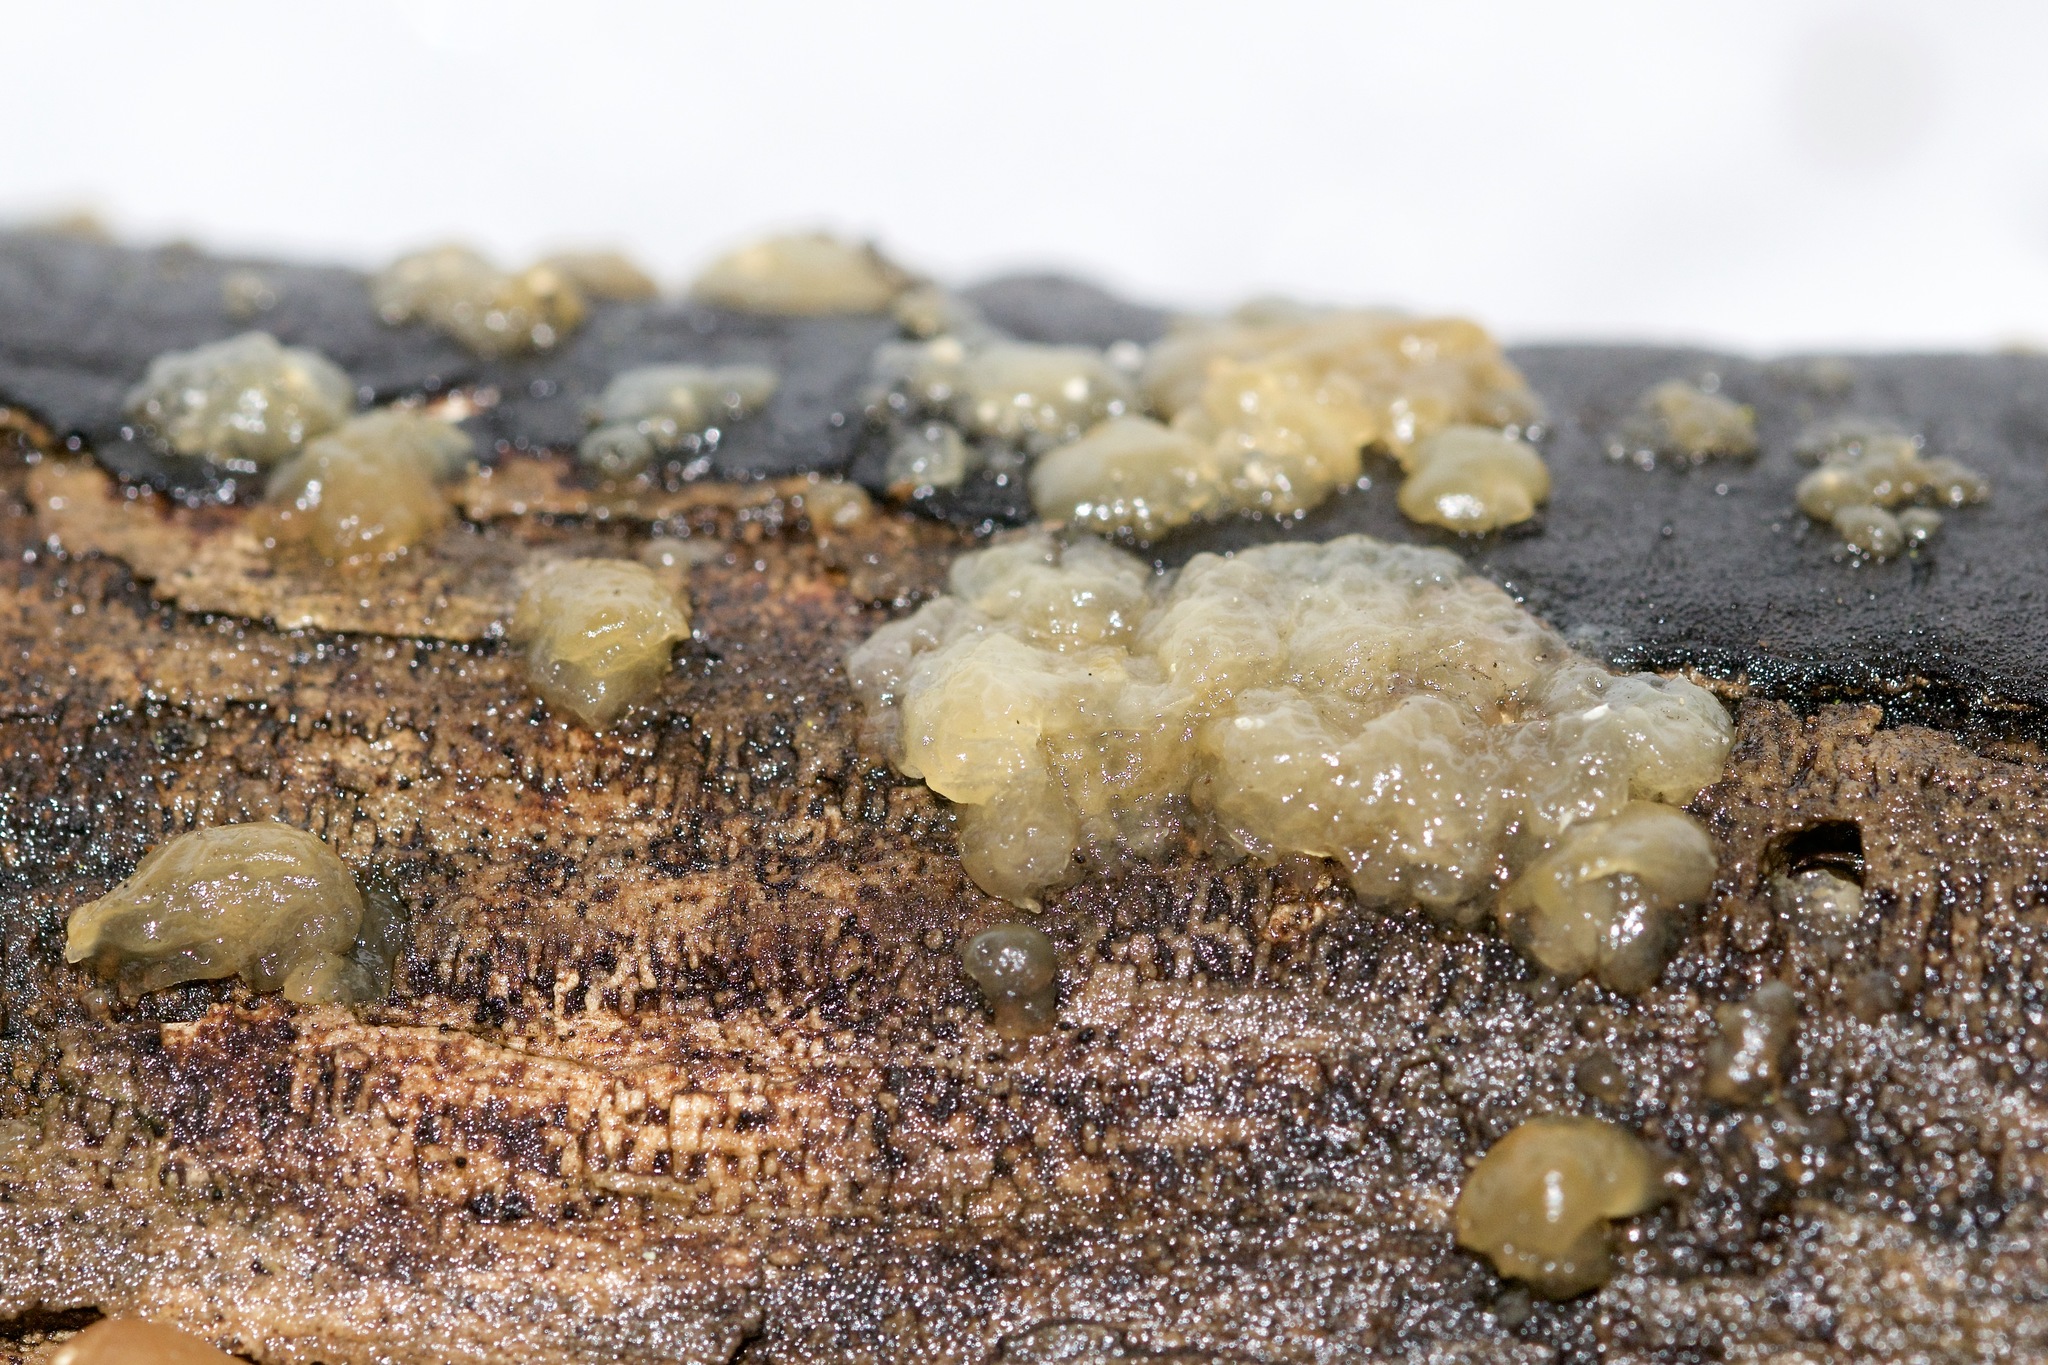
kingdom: Fungi
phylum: Basidiomycota
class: Agaricomycetes
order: Auriculariales
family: Hyaloriaceae
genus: Myxarium
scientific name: Myxarium nucleatum
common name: Crystal brain fungus
